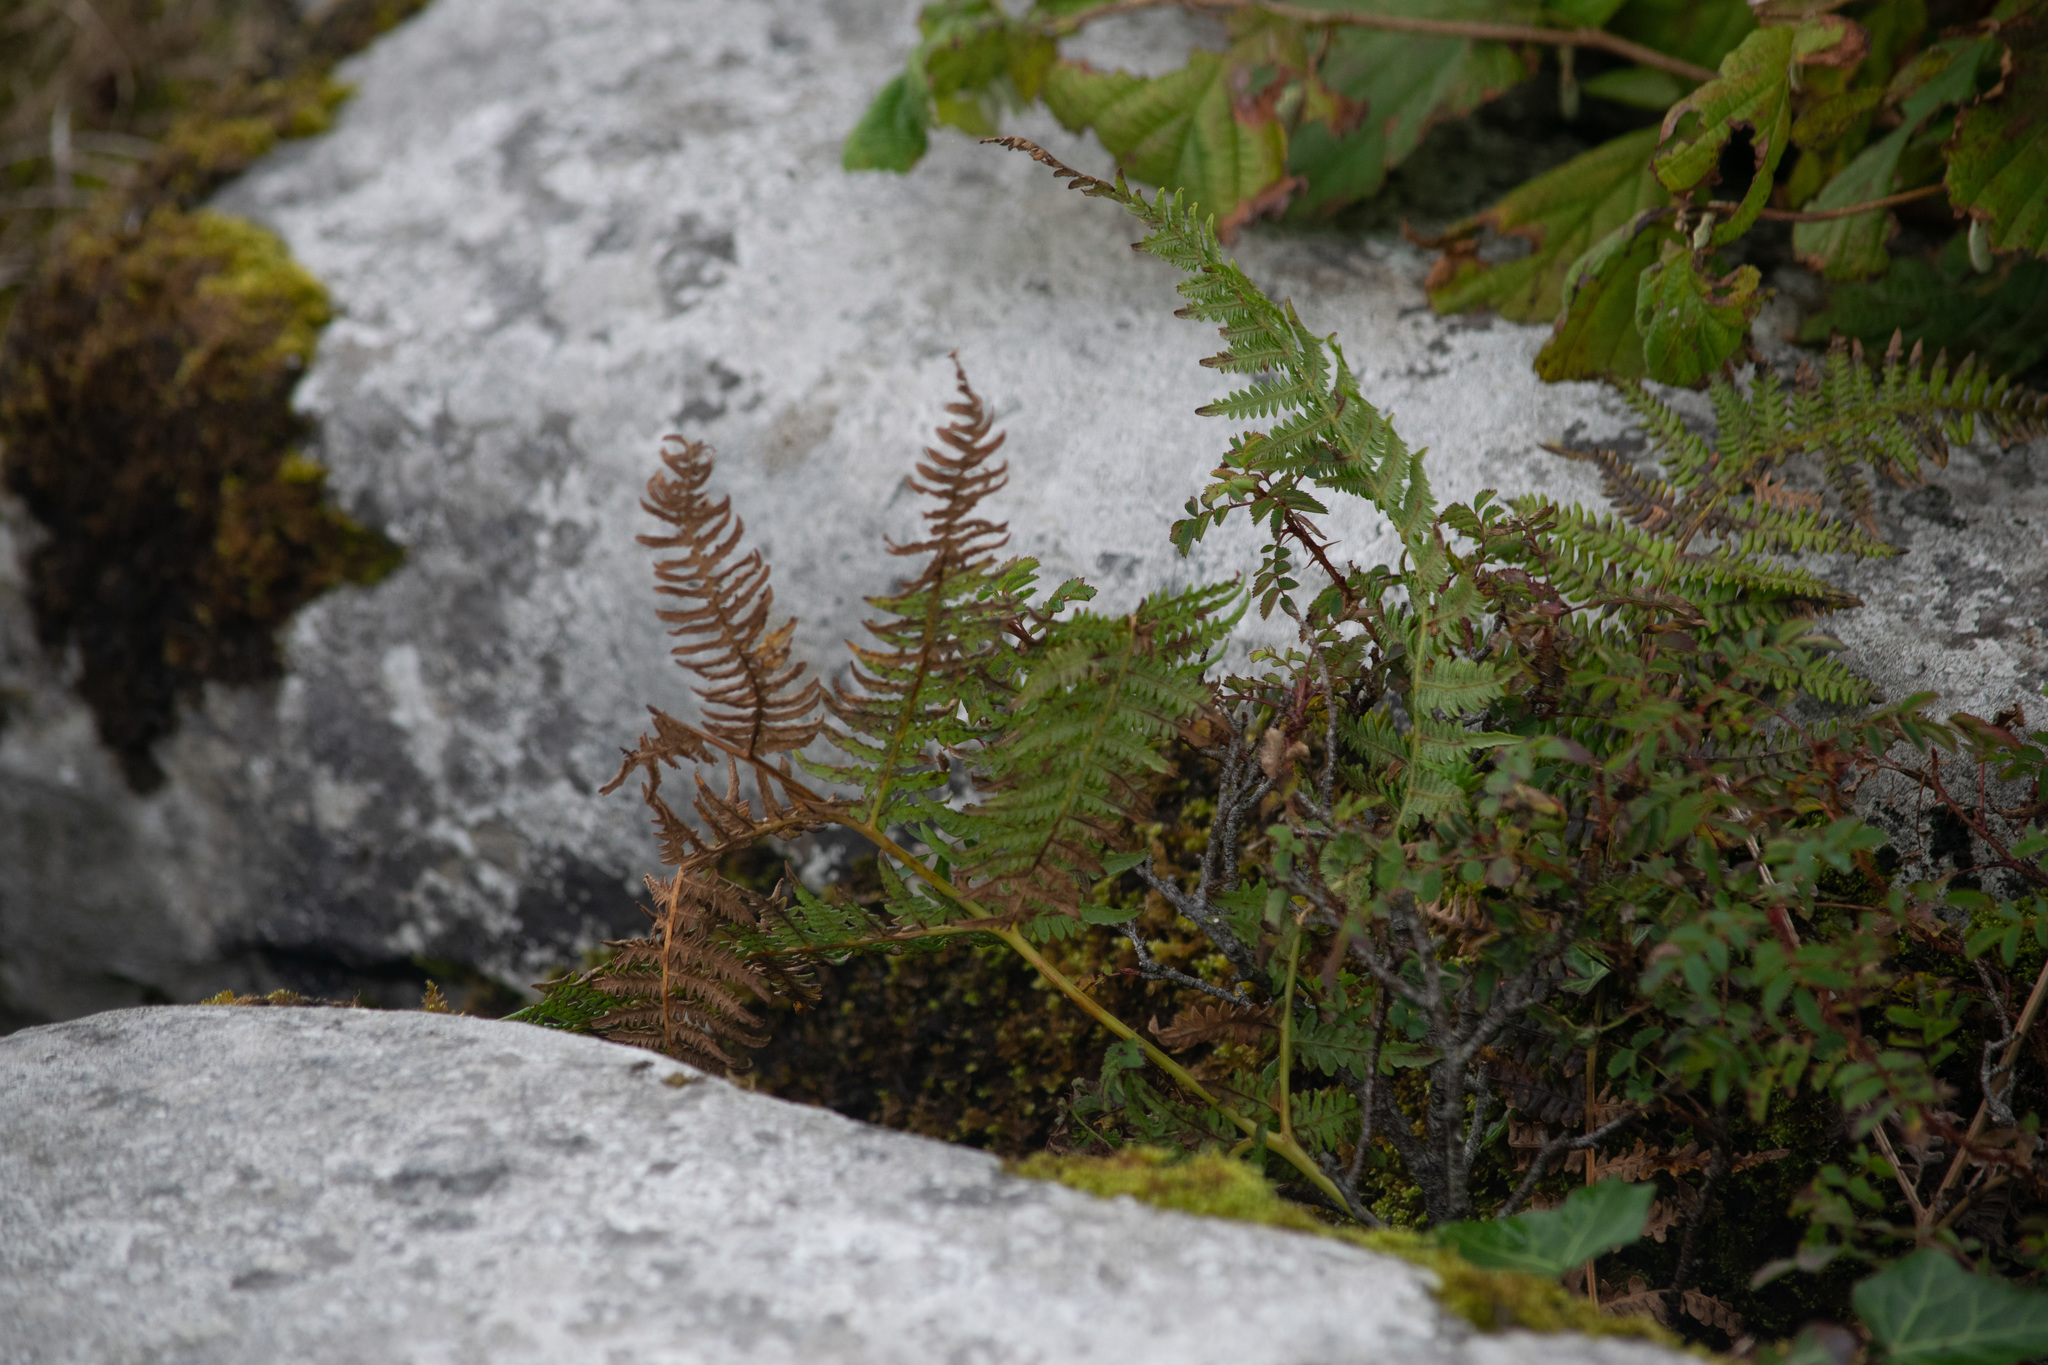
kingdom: Plantae
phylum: Tracheophyta
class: Polypodiopsida
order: Polypodiales
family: Dennstaedtiaceae
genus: Pteridium
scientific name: Pteridium aquilinum
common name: Bracken
